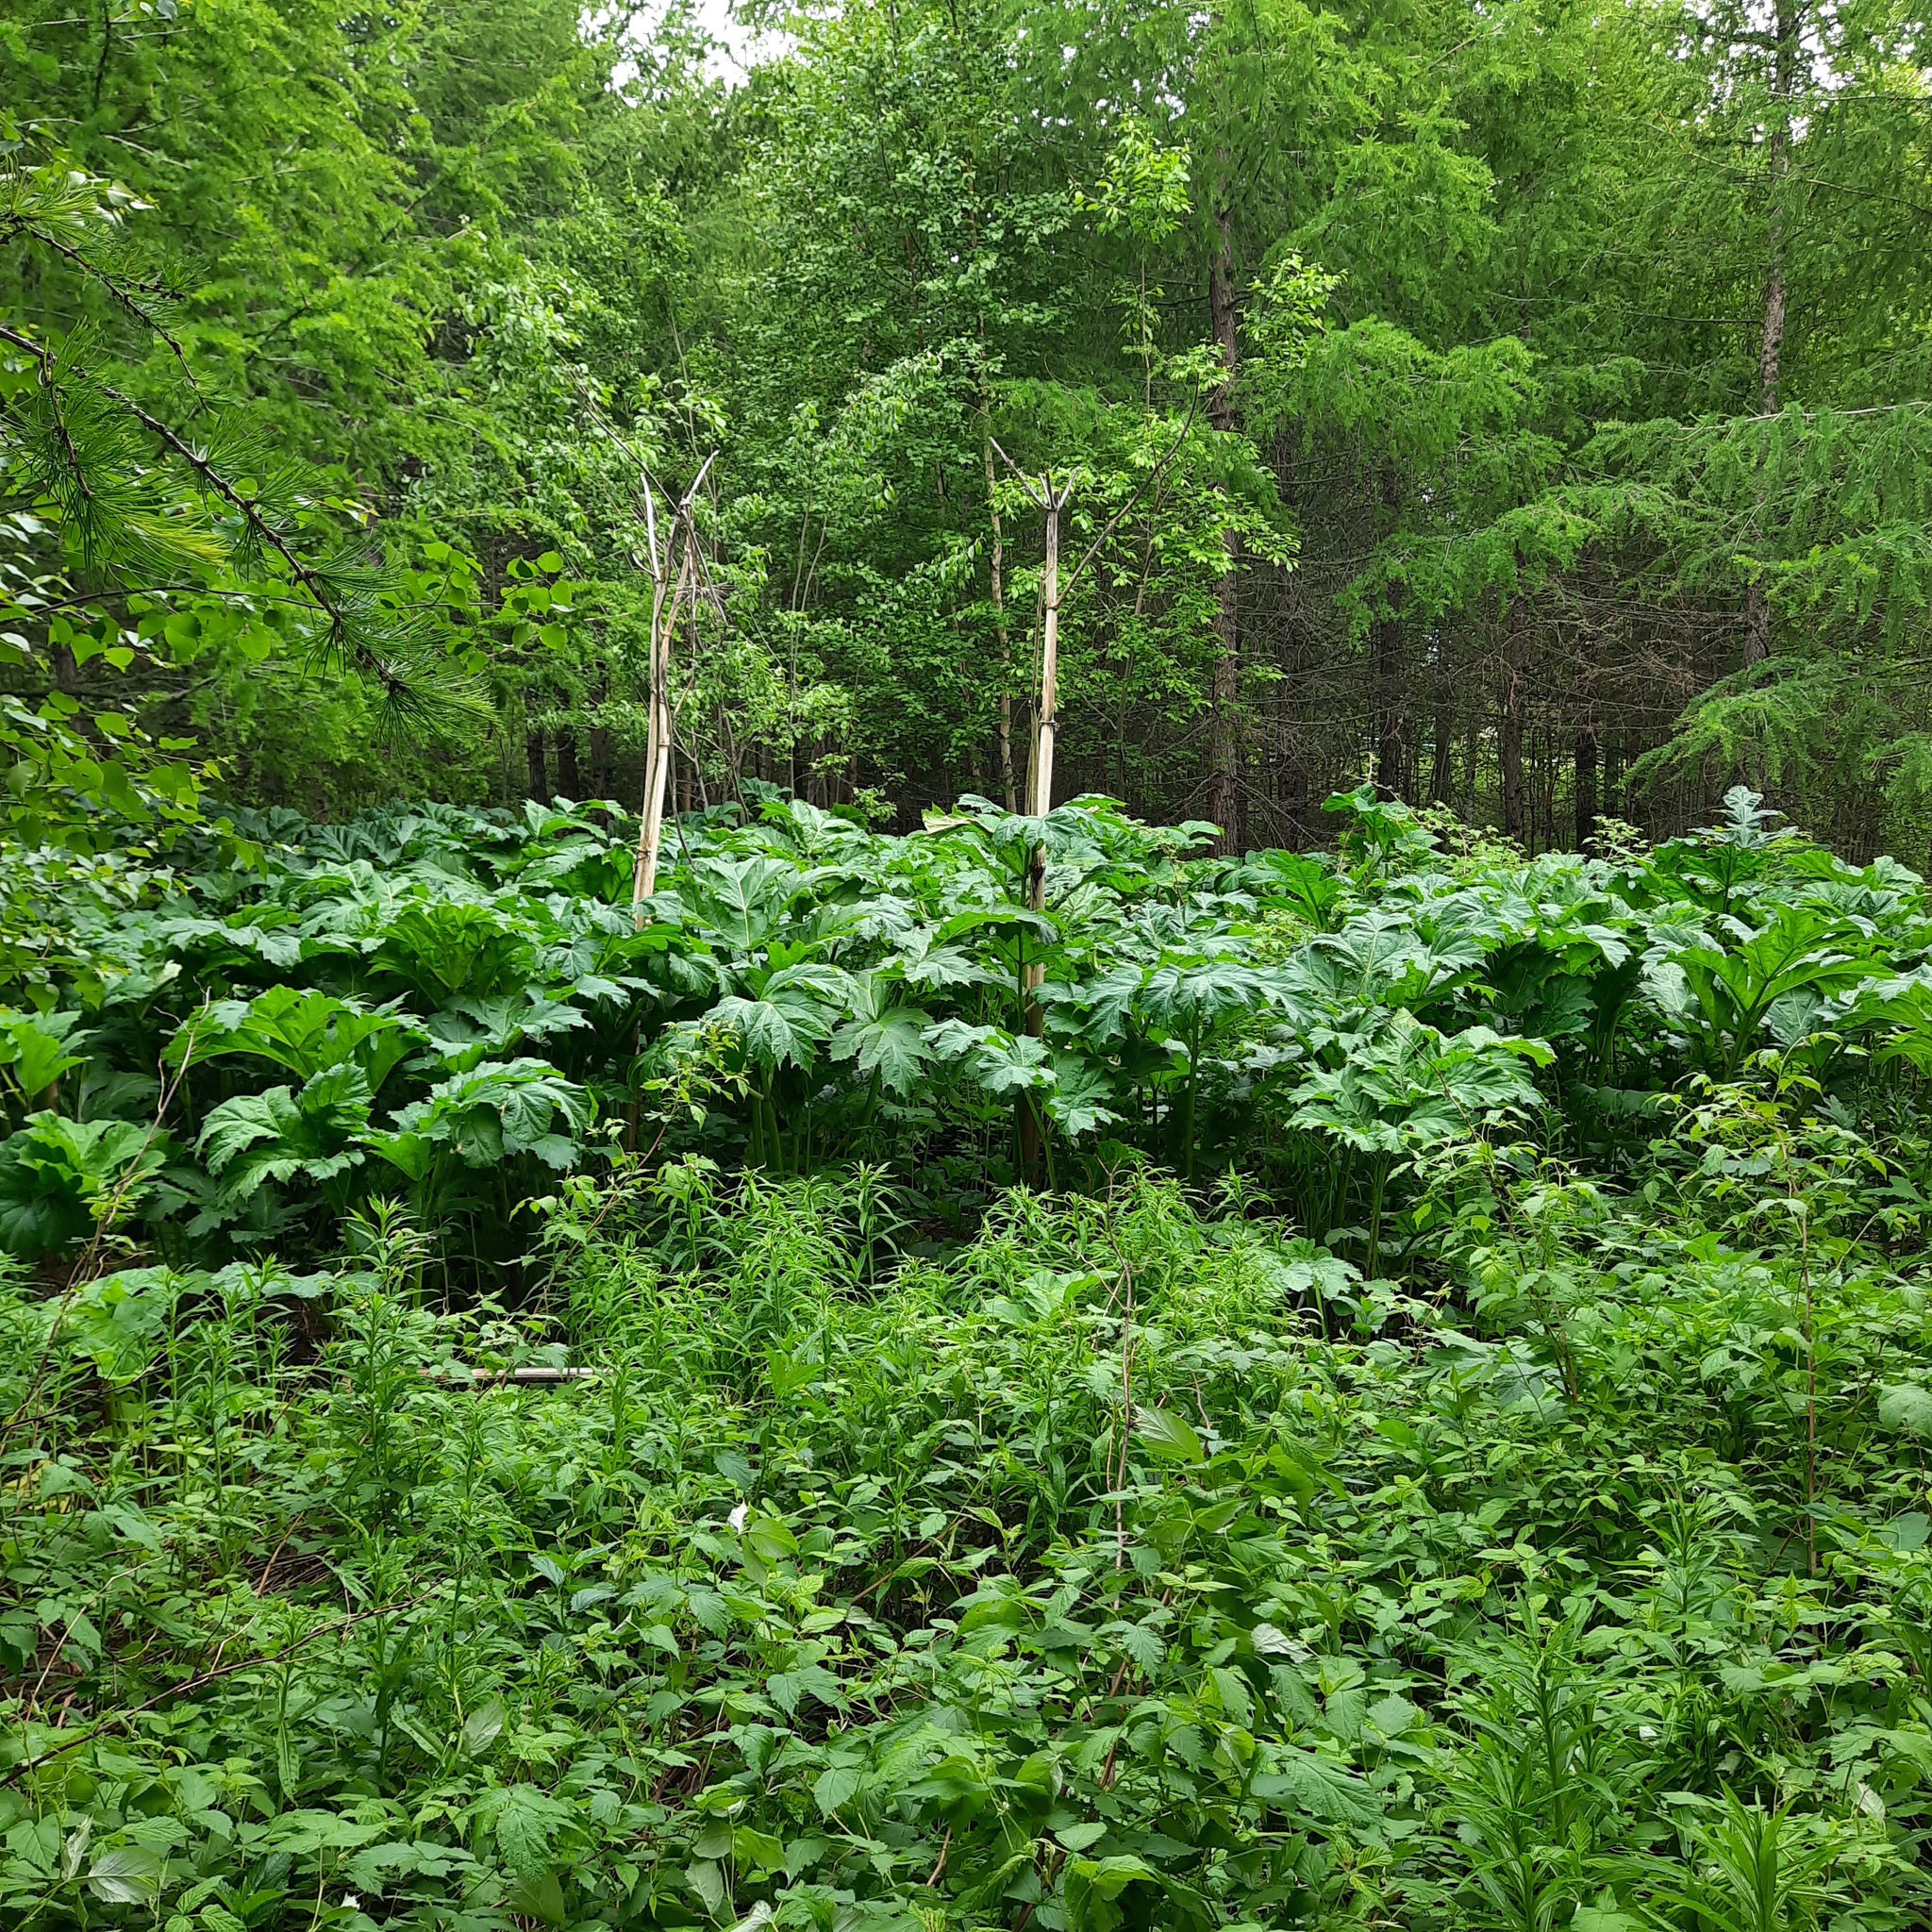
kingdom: Plantae
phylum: Tracheophyta
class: Magnoliopsida
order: Apiales
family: Apiaceae
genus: Heracleum
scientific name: Heracleum sosnowskyi
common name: Sosnowsky's hogweed
